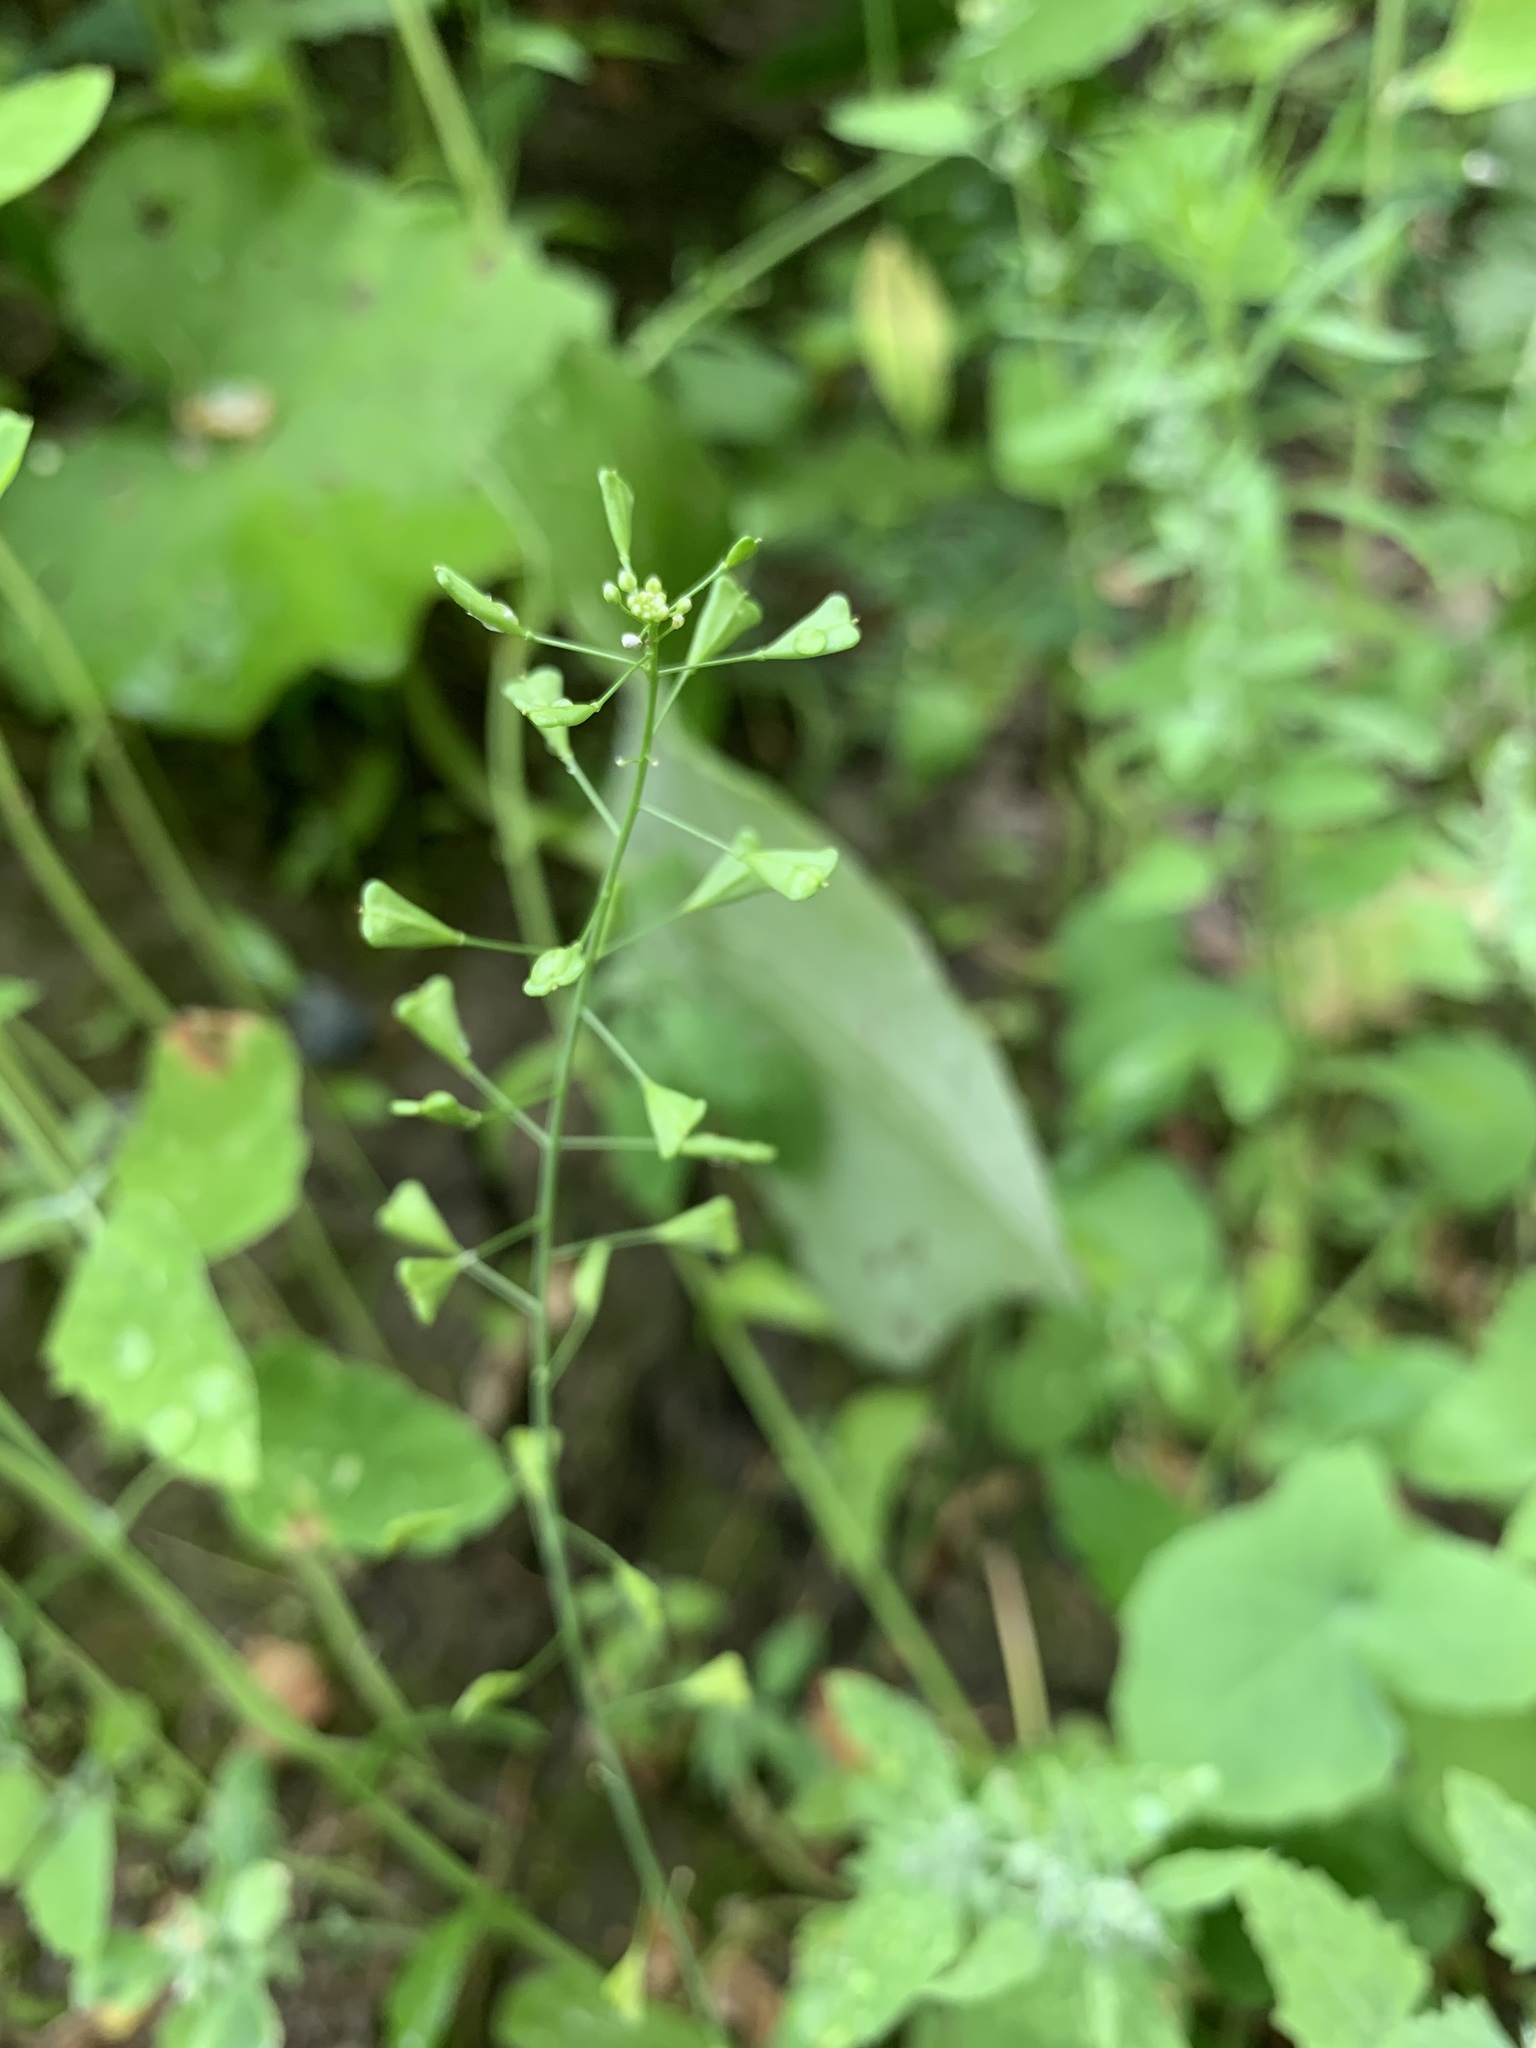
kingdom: Plantae
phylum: Tracheophyta
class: Magnoliopsida
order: Brassicales
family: Brassicaceae
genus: Capsella
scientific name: Capsella bursa-pastoris
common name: Shepherd's purse
